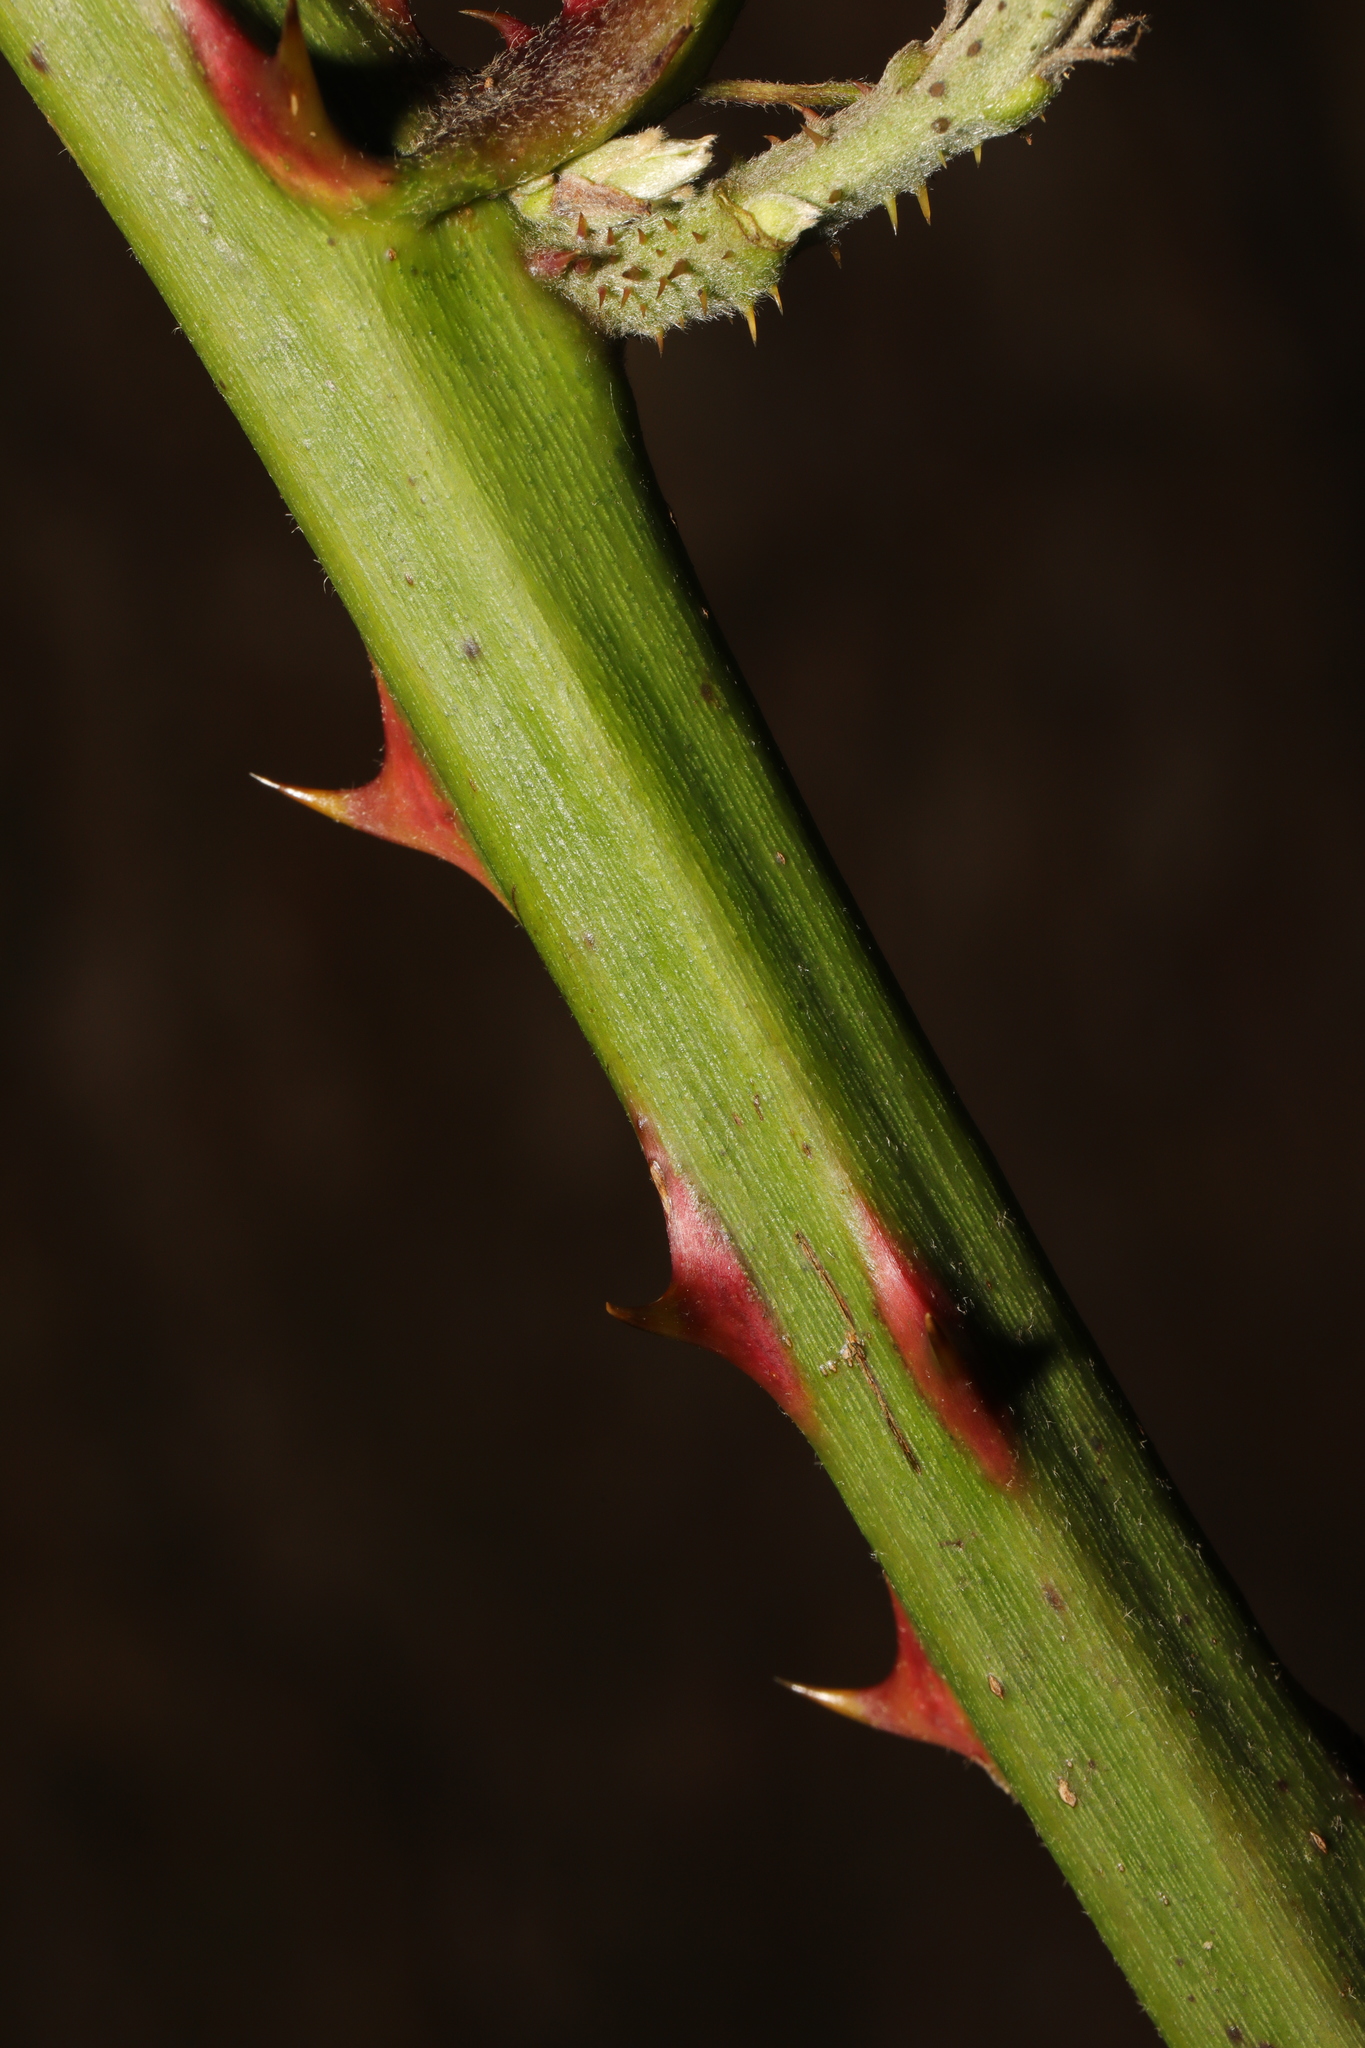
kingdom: Plantae
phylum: Tracheophyta
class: Magnoliopsida
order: Rosales
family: Rosaceae
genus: Rubus
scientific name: Rubus armeniacus
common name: Himalayan blackberry
